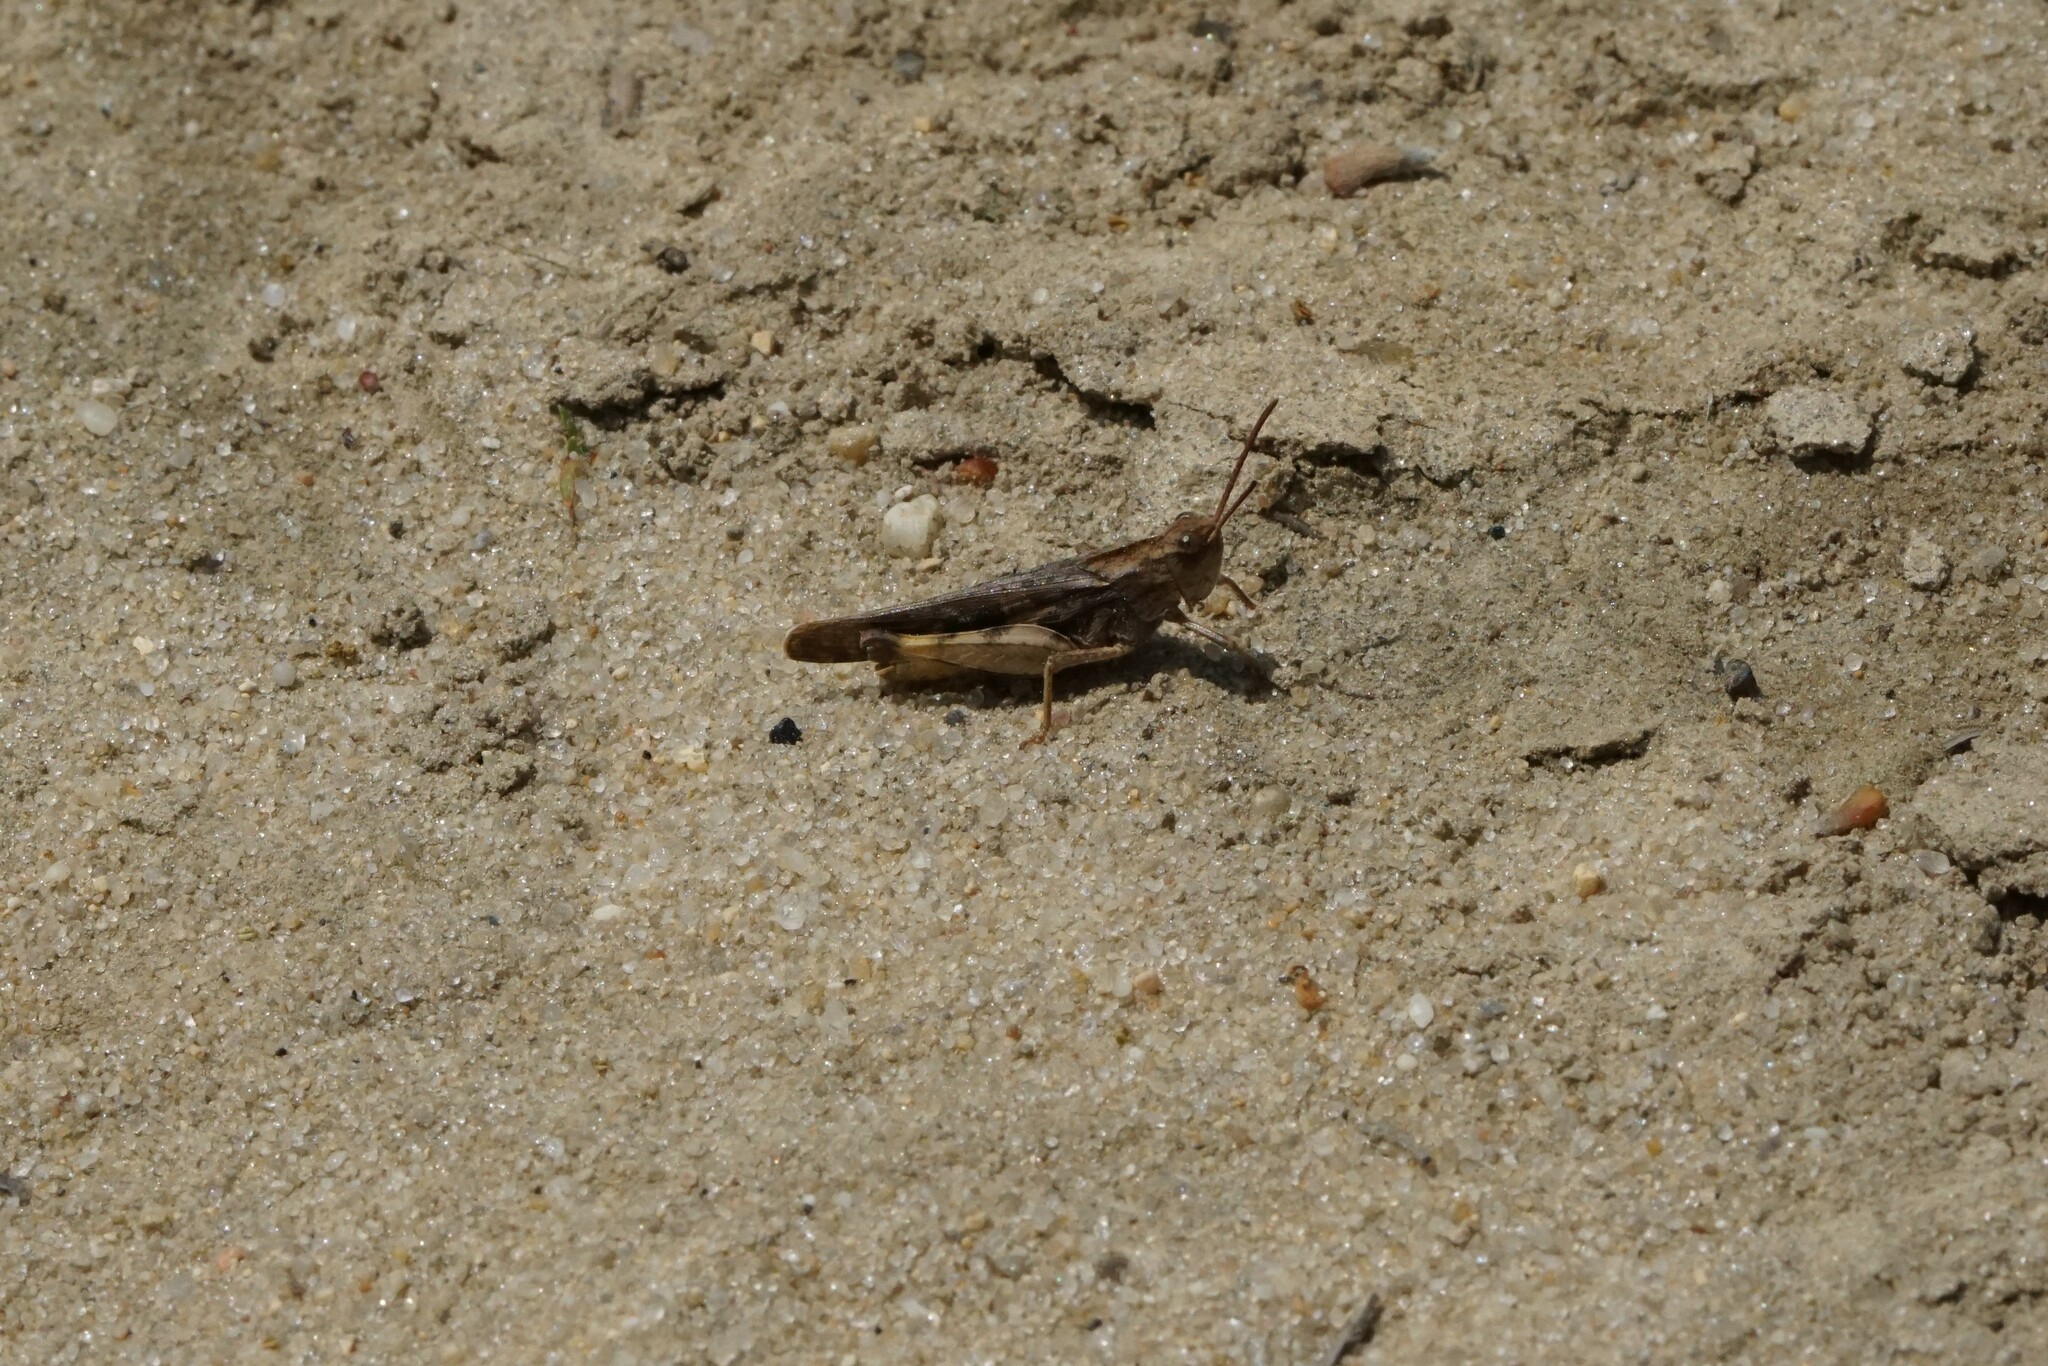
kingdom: Animalia
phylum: Arthropoda
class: Insecta
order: Orthoptera
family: Acrididae
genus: Chortophaga
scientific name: Chortophaga viridifasciata
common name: Green-striped grasshopper
